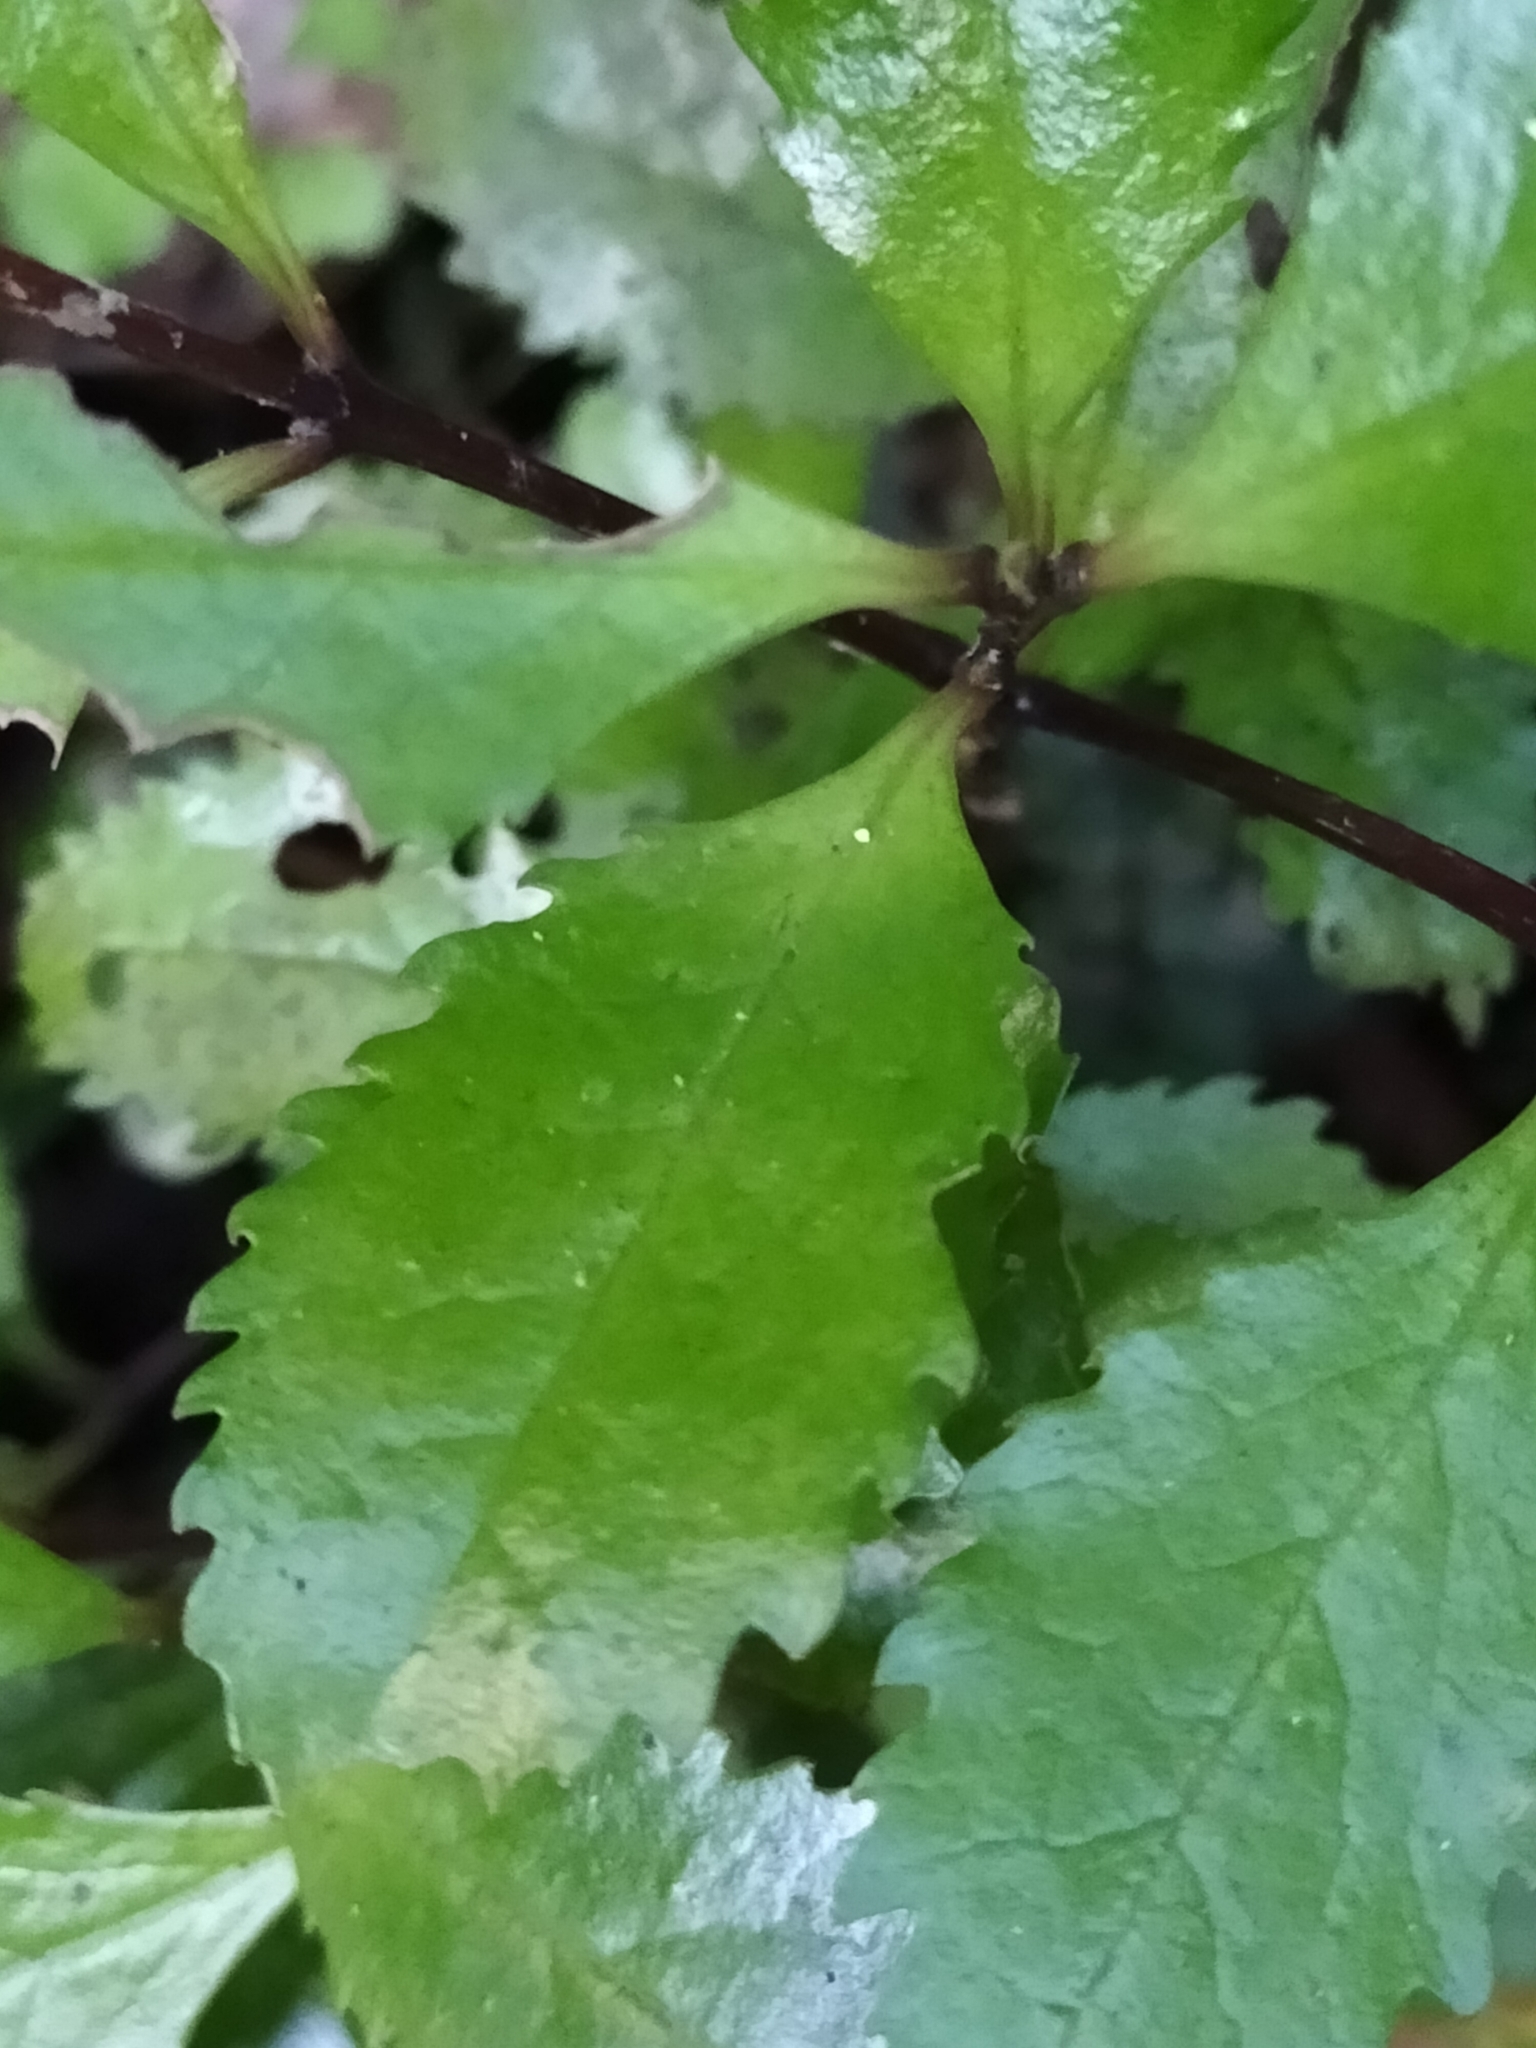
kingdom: Plantae
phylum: Tracheophyta
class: Magnoliopsida
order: Laurales
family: Atherospermataceae
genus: Laurelia
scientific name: Laurelia novae-zelandiae
